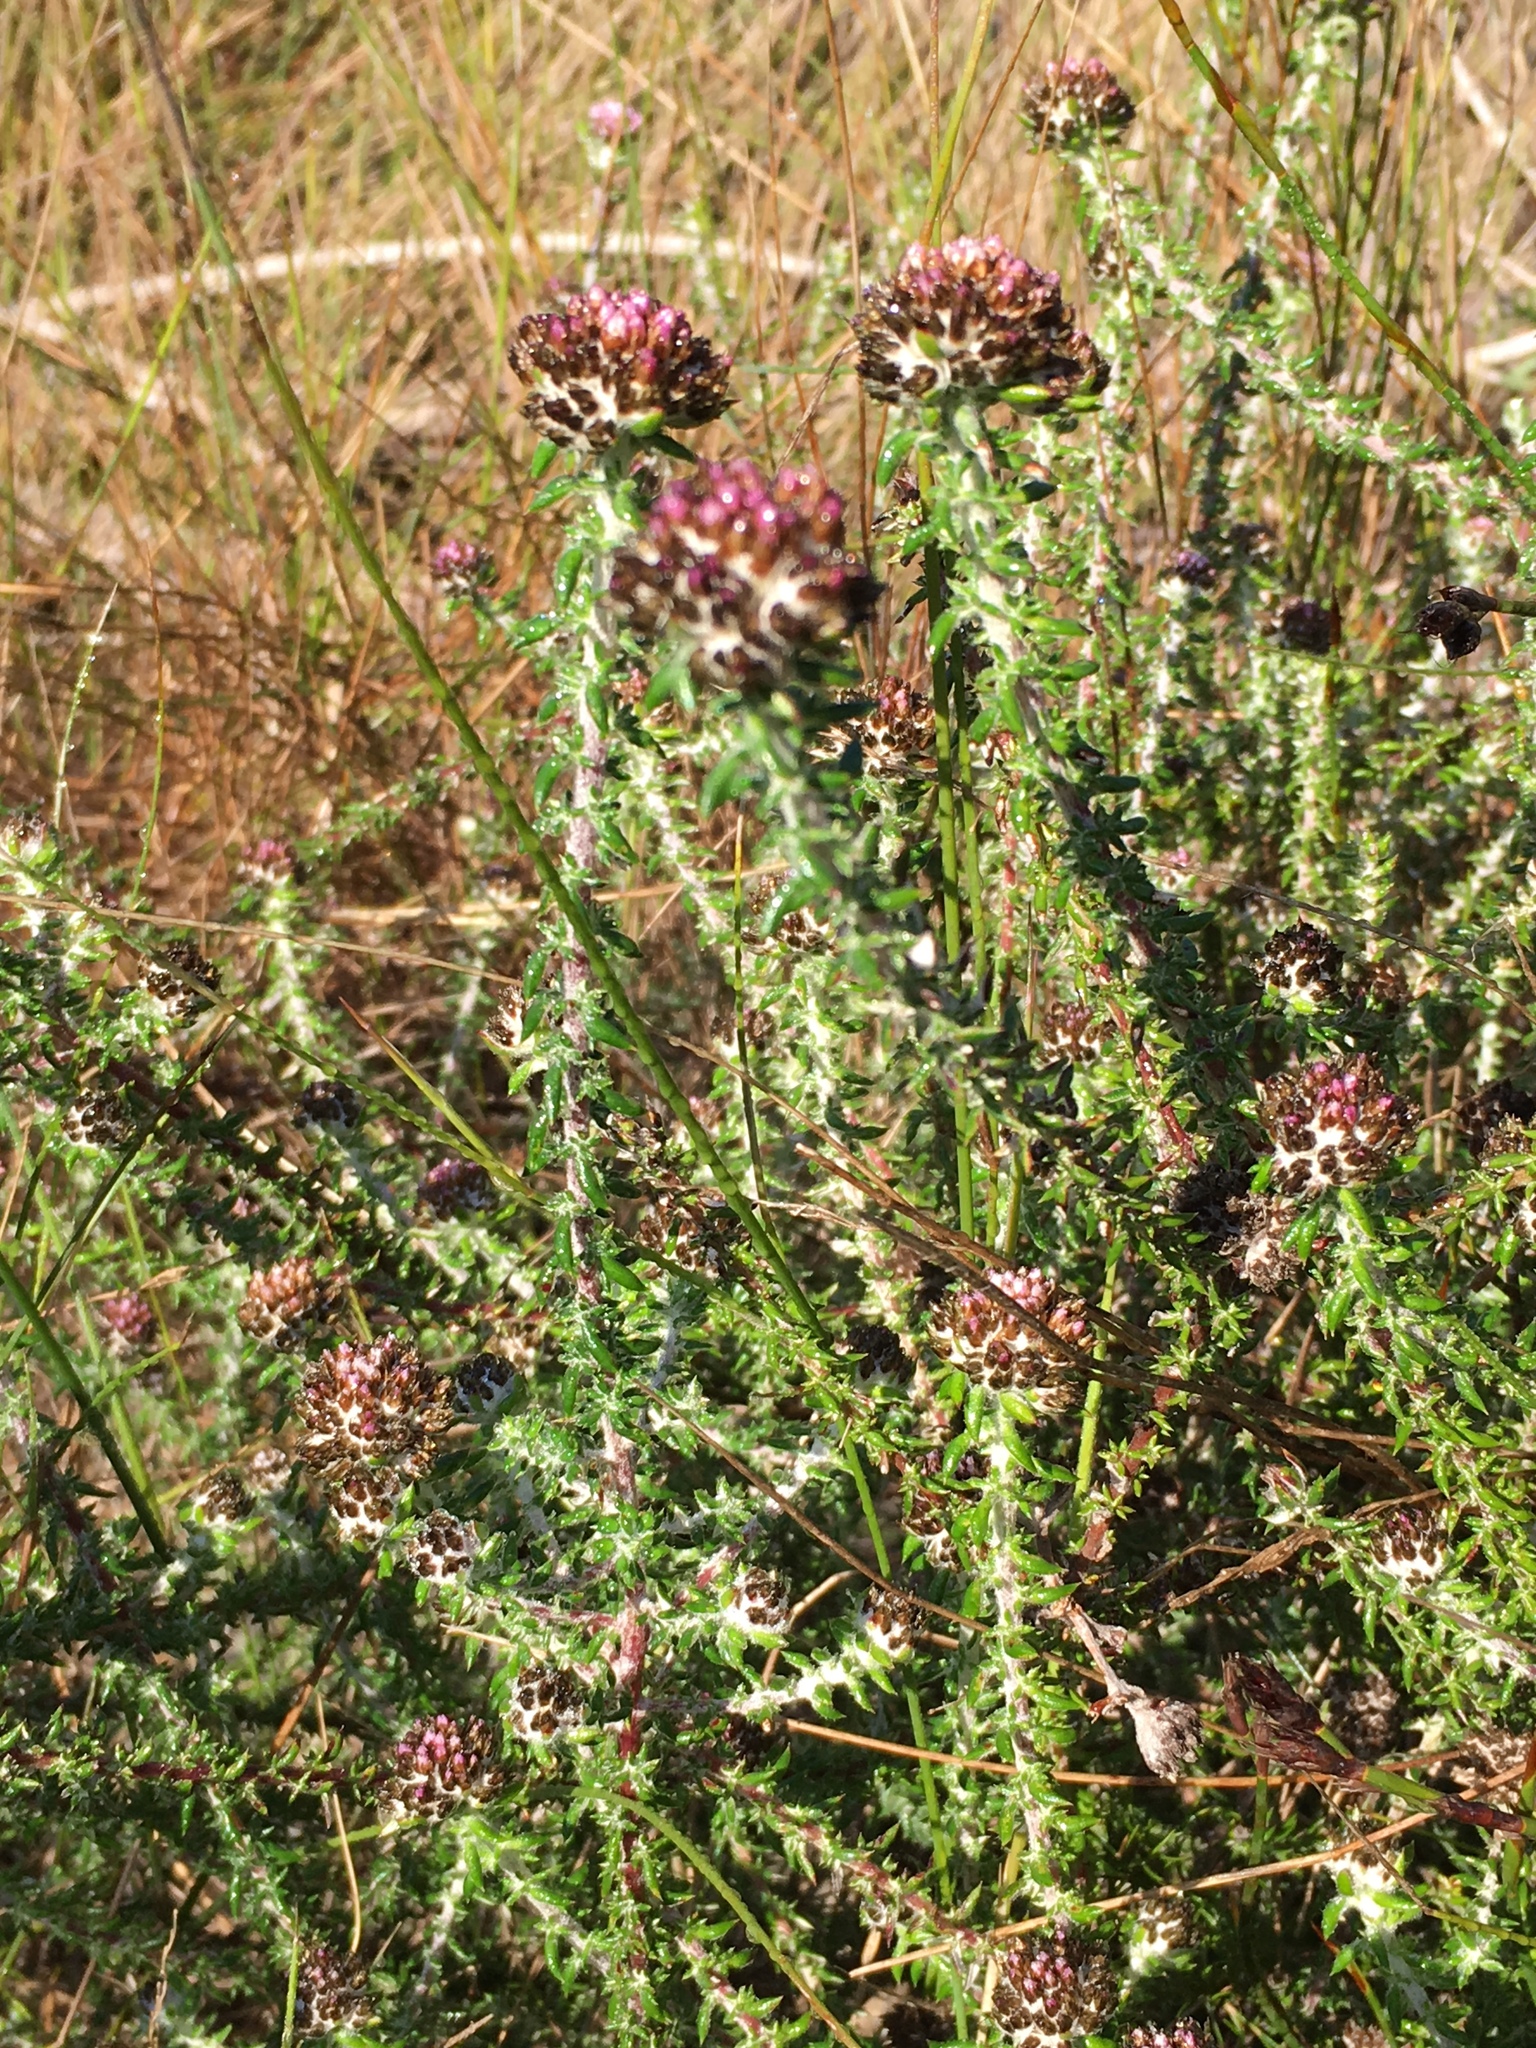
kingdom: Plantae
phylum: Tracheophyta
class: Magnoliopsida
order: Asterales
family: Asteraceae
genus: Metalasia
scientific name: Metalasia divergens
